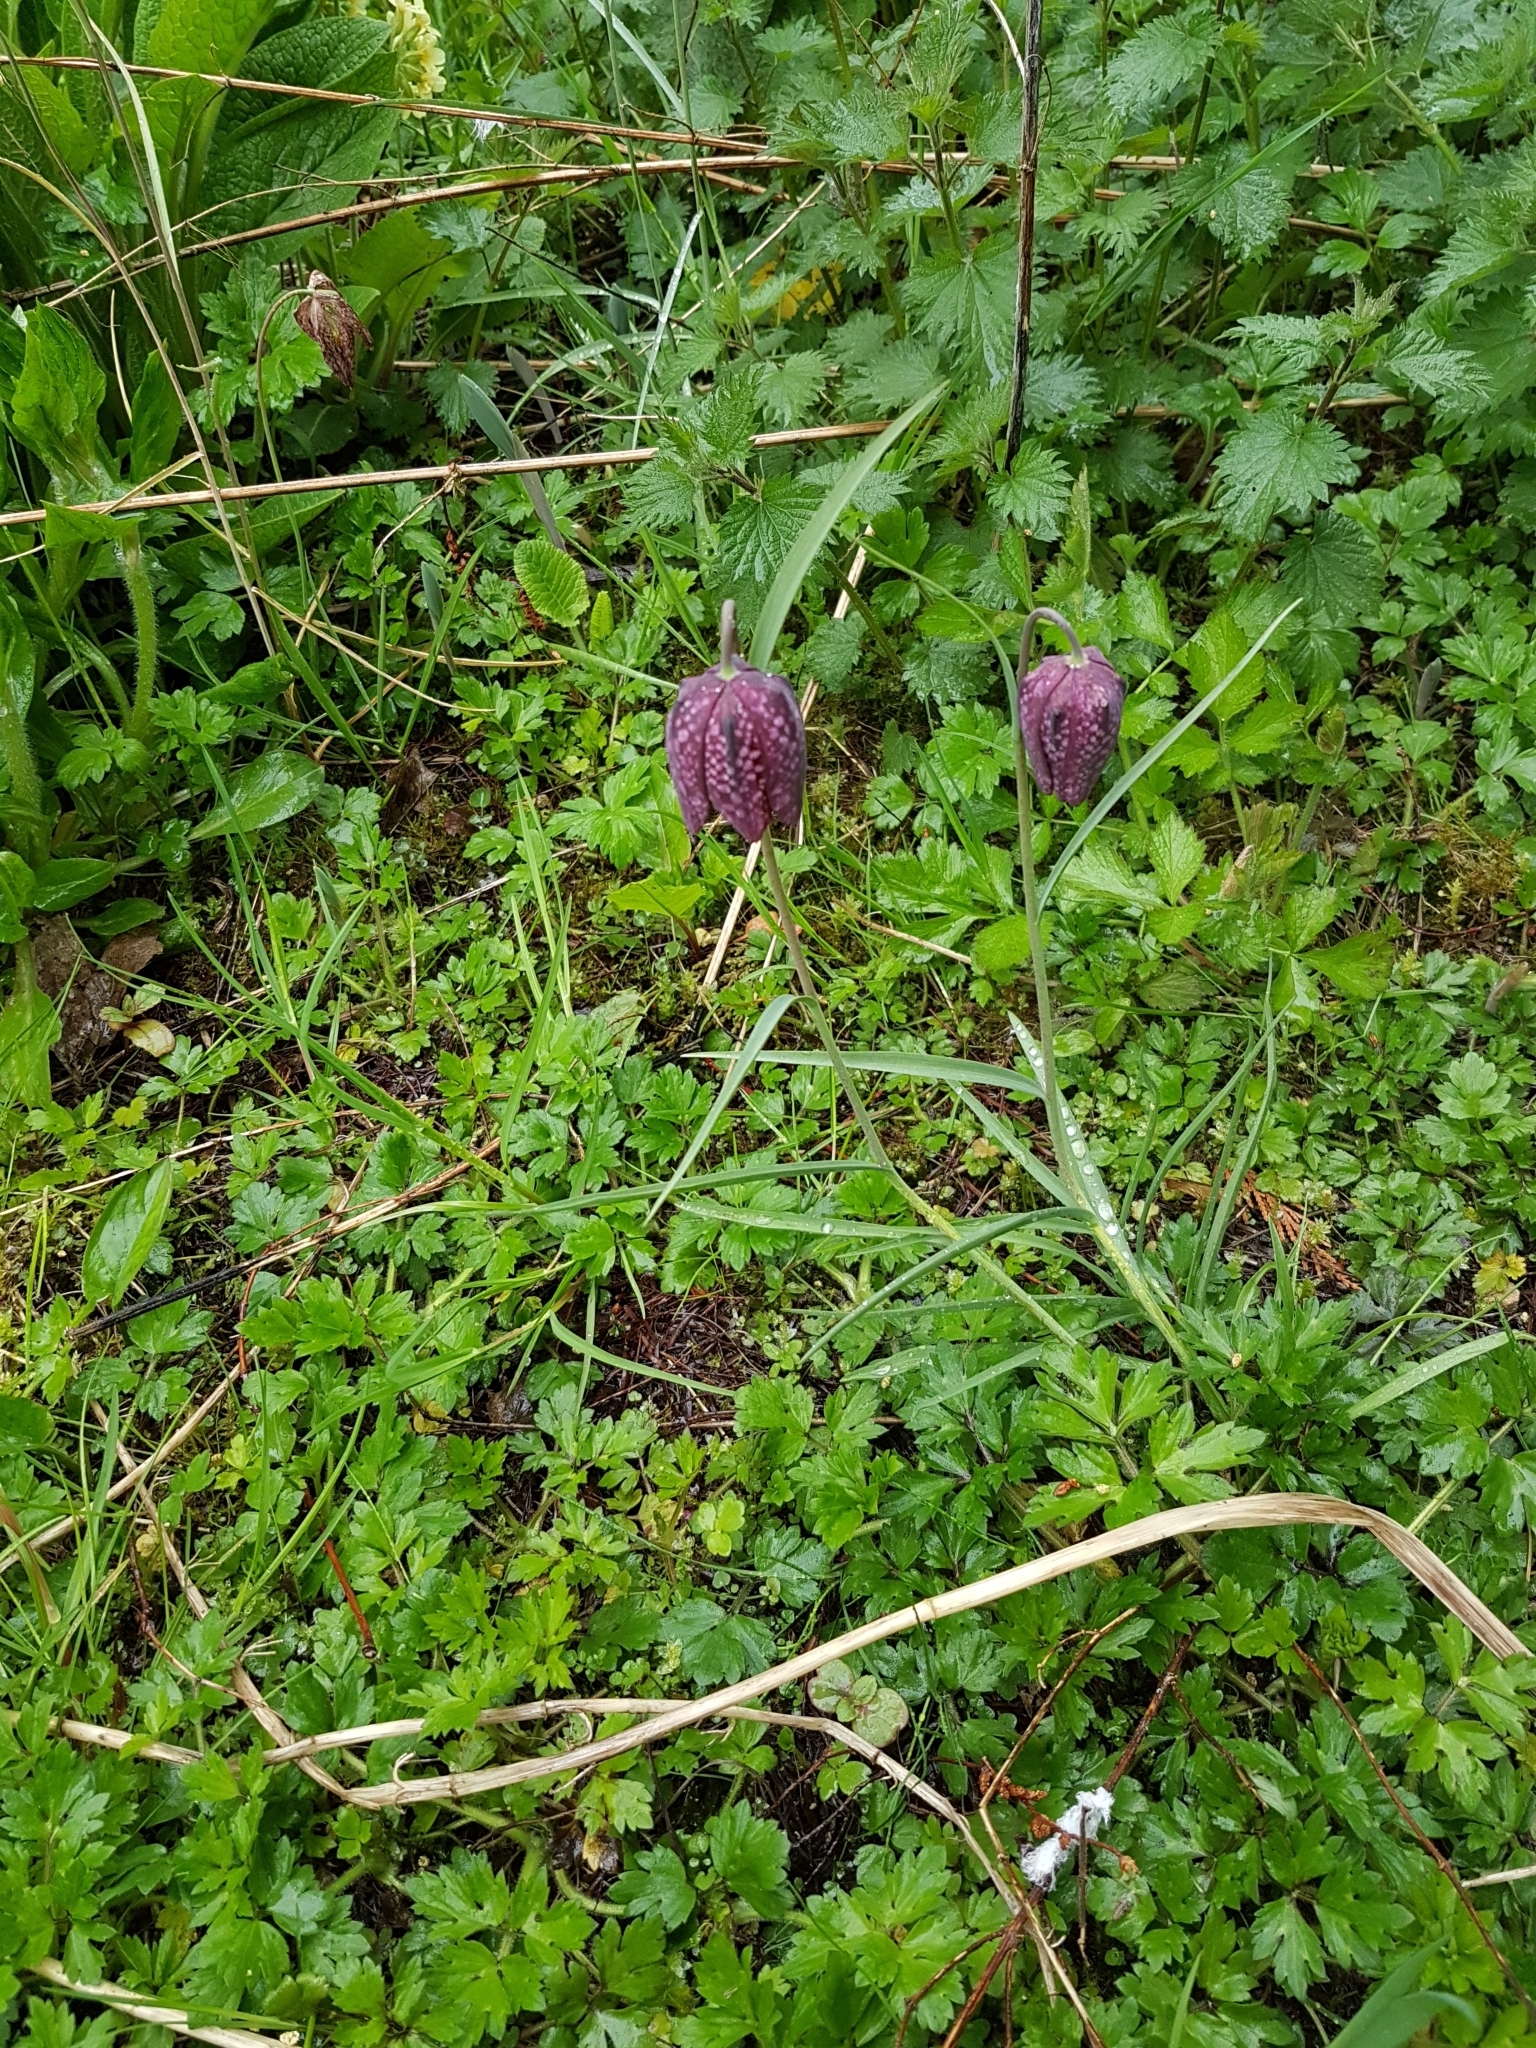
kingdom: Plantae
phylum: Tracheophyta
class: Liliopsida
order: Liliales
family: Liliaceae
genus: Fritillaria
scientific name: Fritillaria meleagris
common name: Fritillary
